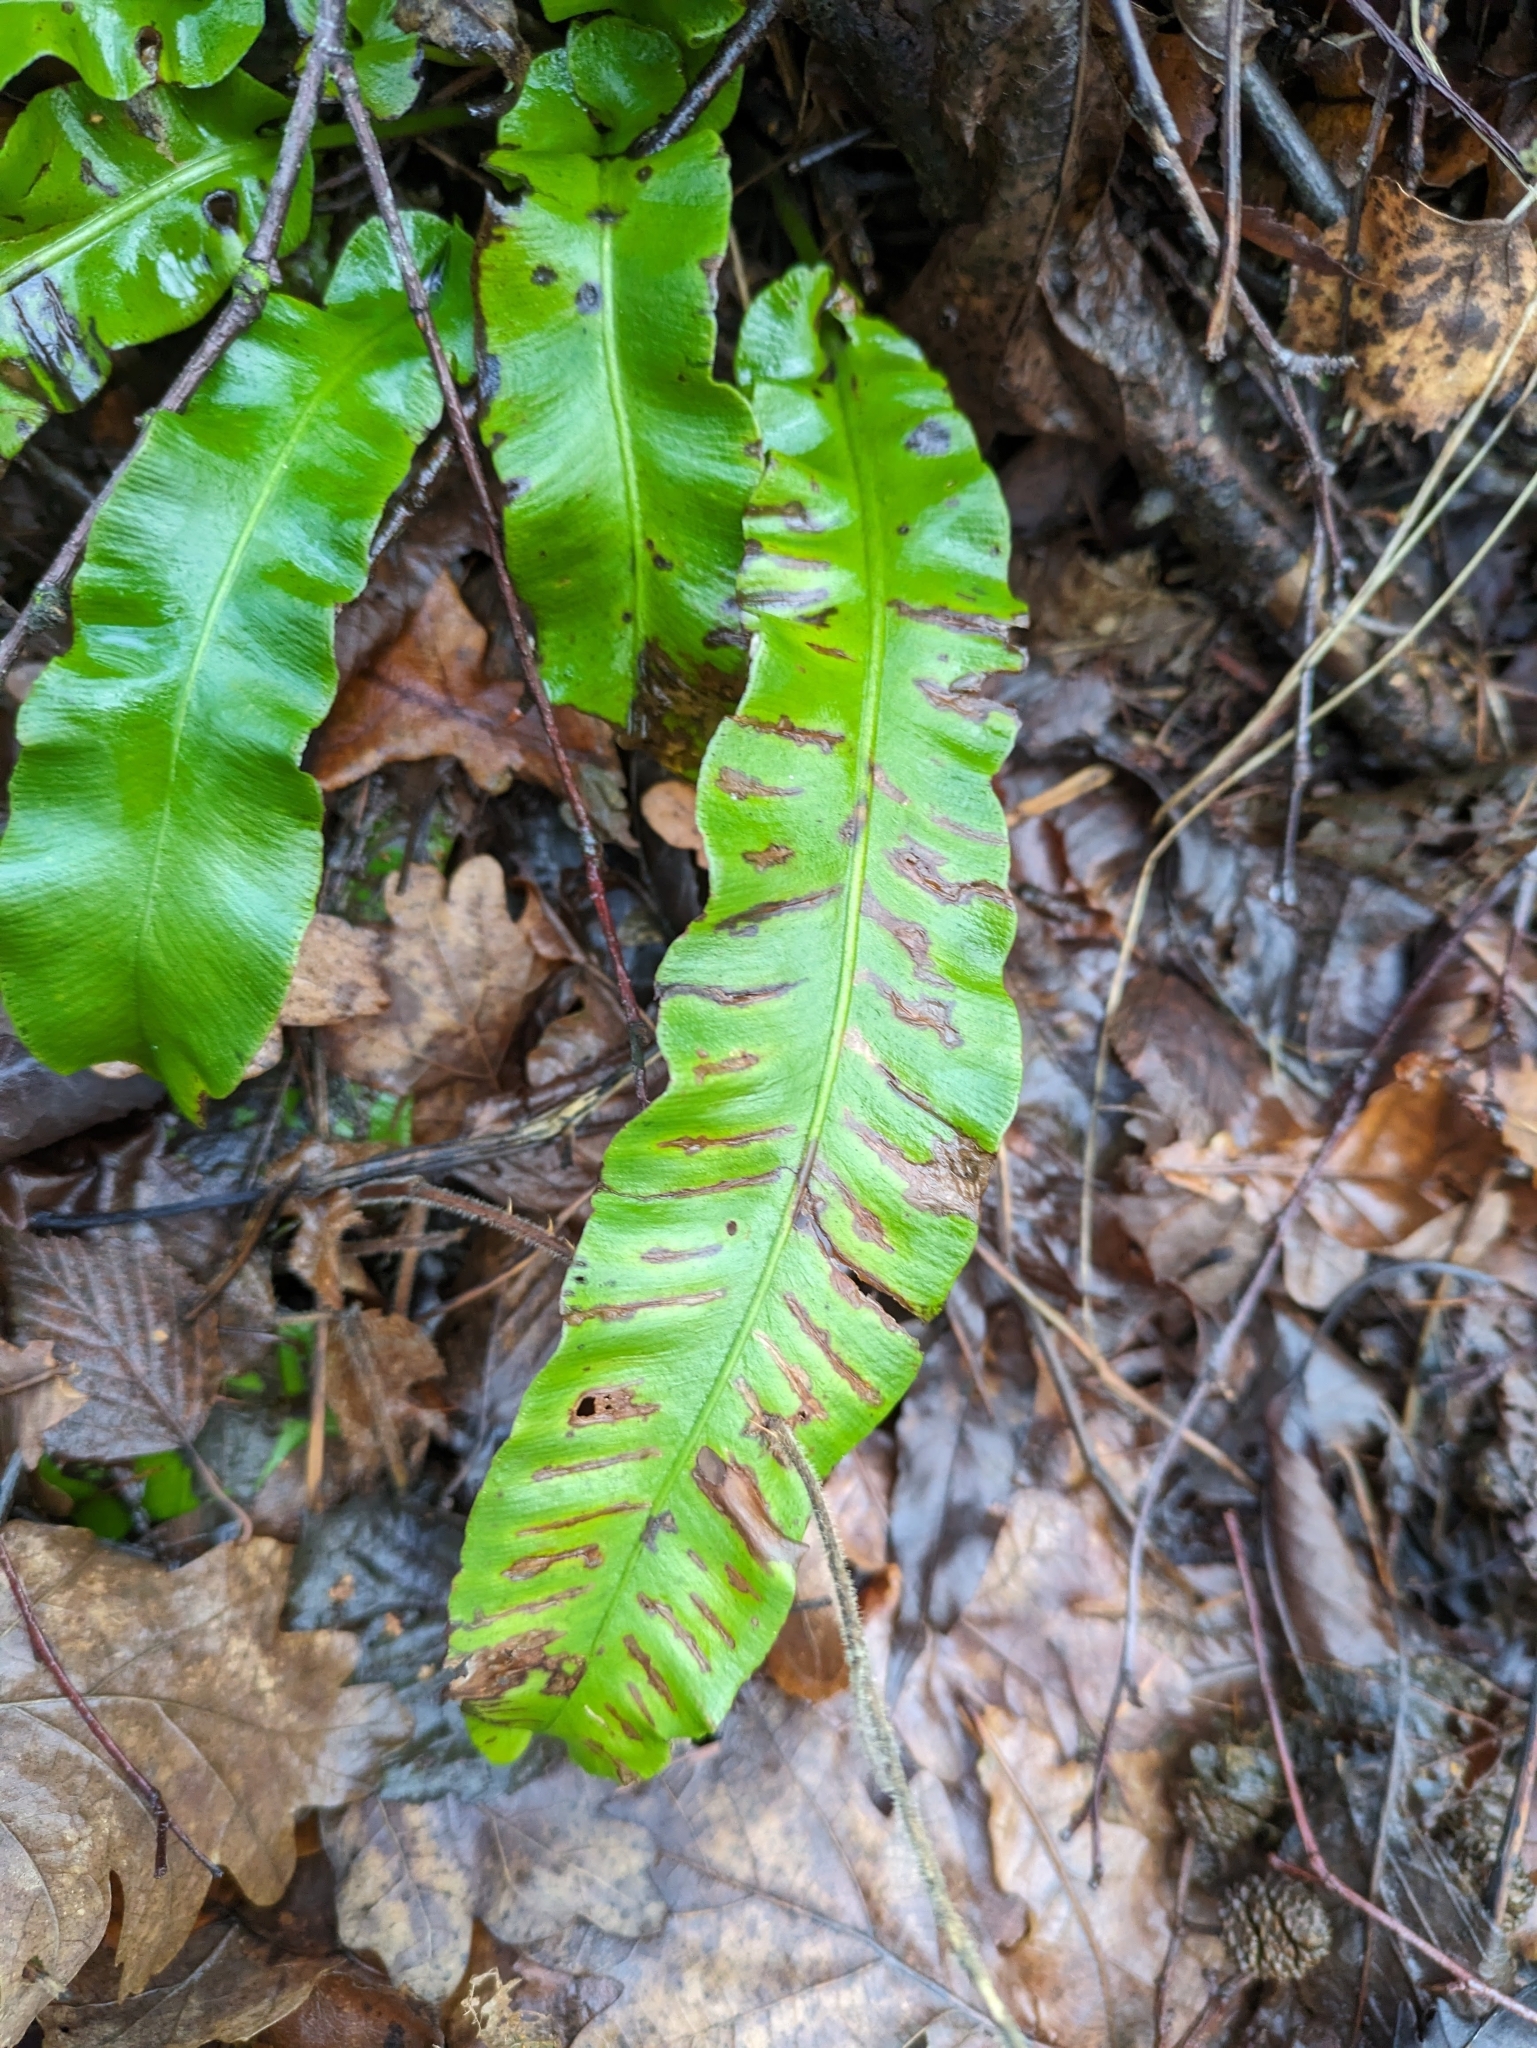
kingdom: Plantae
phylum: Tracheophyta
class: Polypodiopsida
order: Polypodiales
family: Aspleniaceae
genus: Asplenium
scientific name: Asplenium scolopendrium
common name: Hart's-tongue fern
